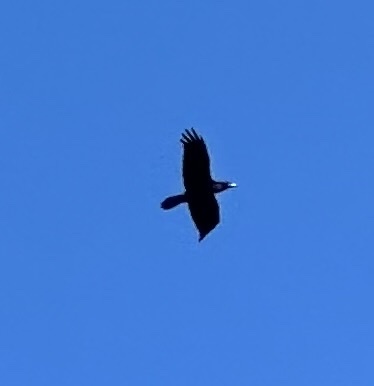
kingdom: Animalia
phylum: Chordata
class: Aves
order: Passeriformes
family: Corvidae
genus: Corvus
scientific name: Corvus corax
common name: Common raven
